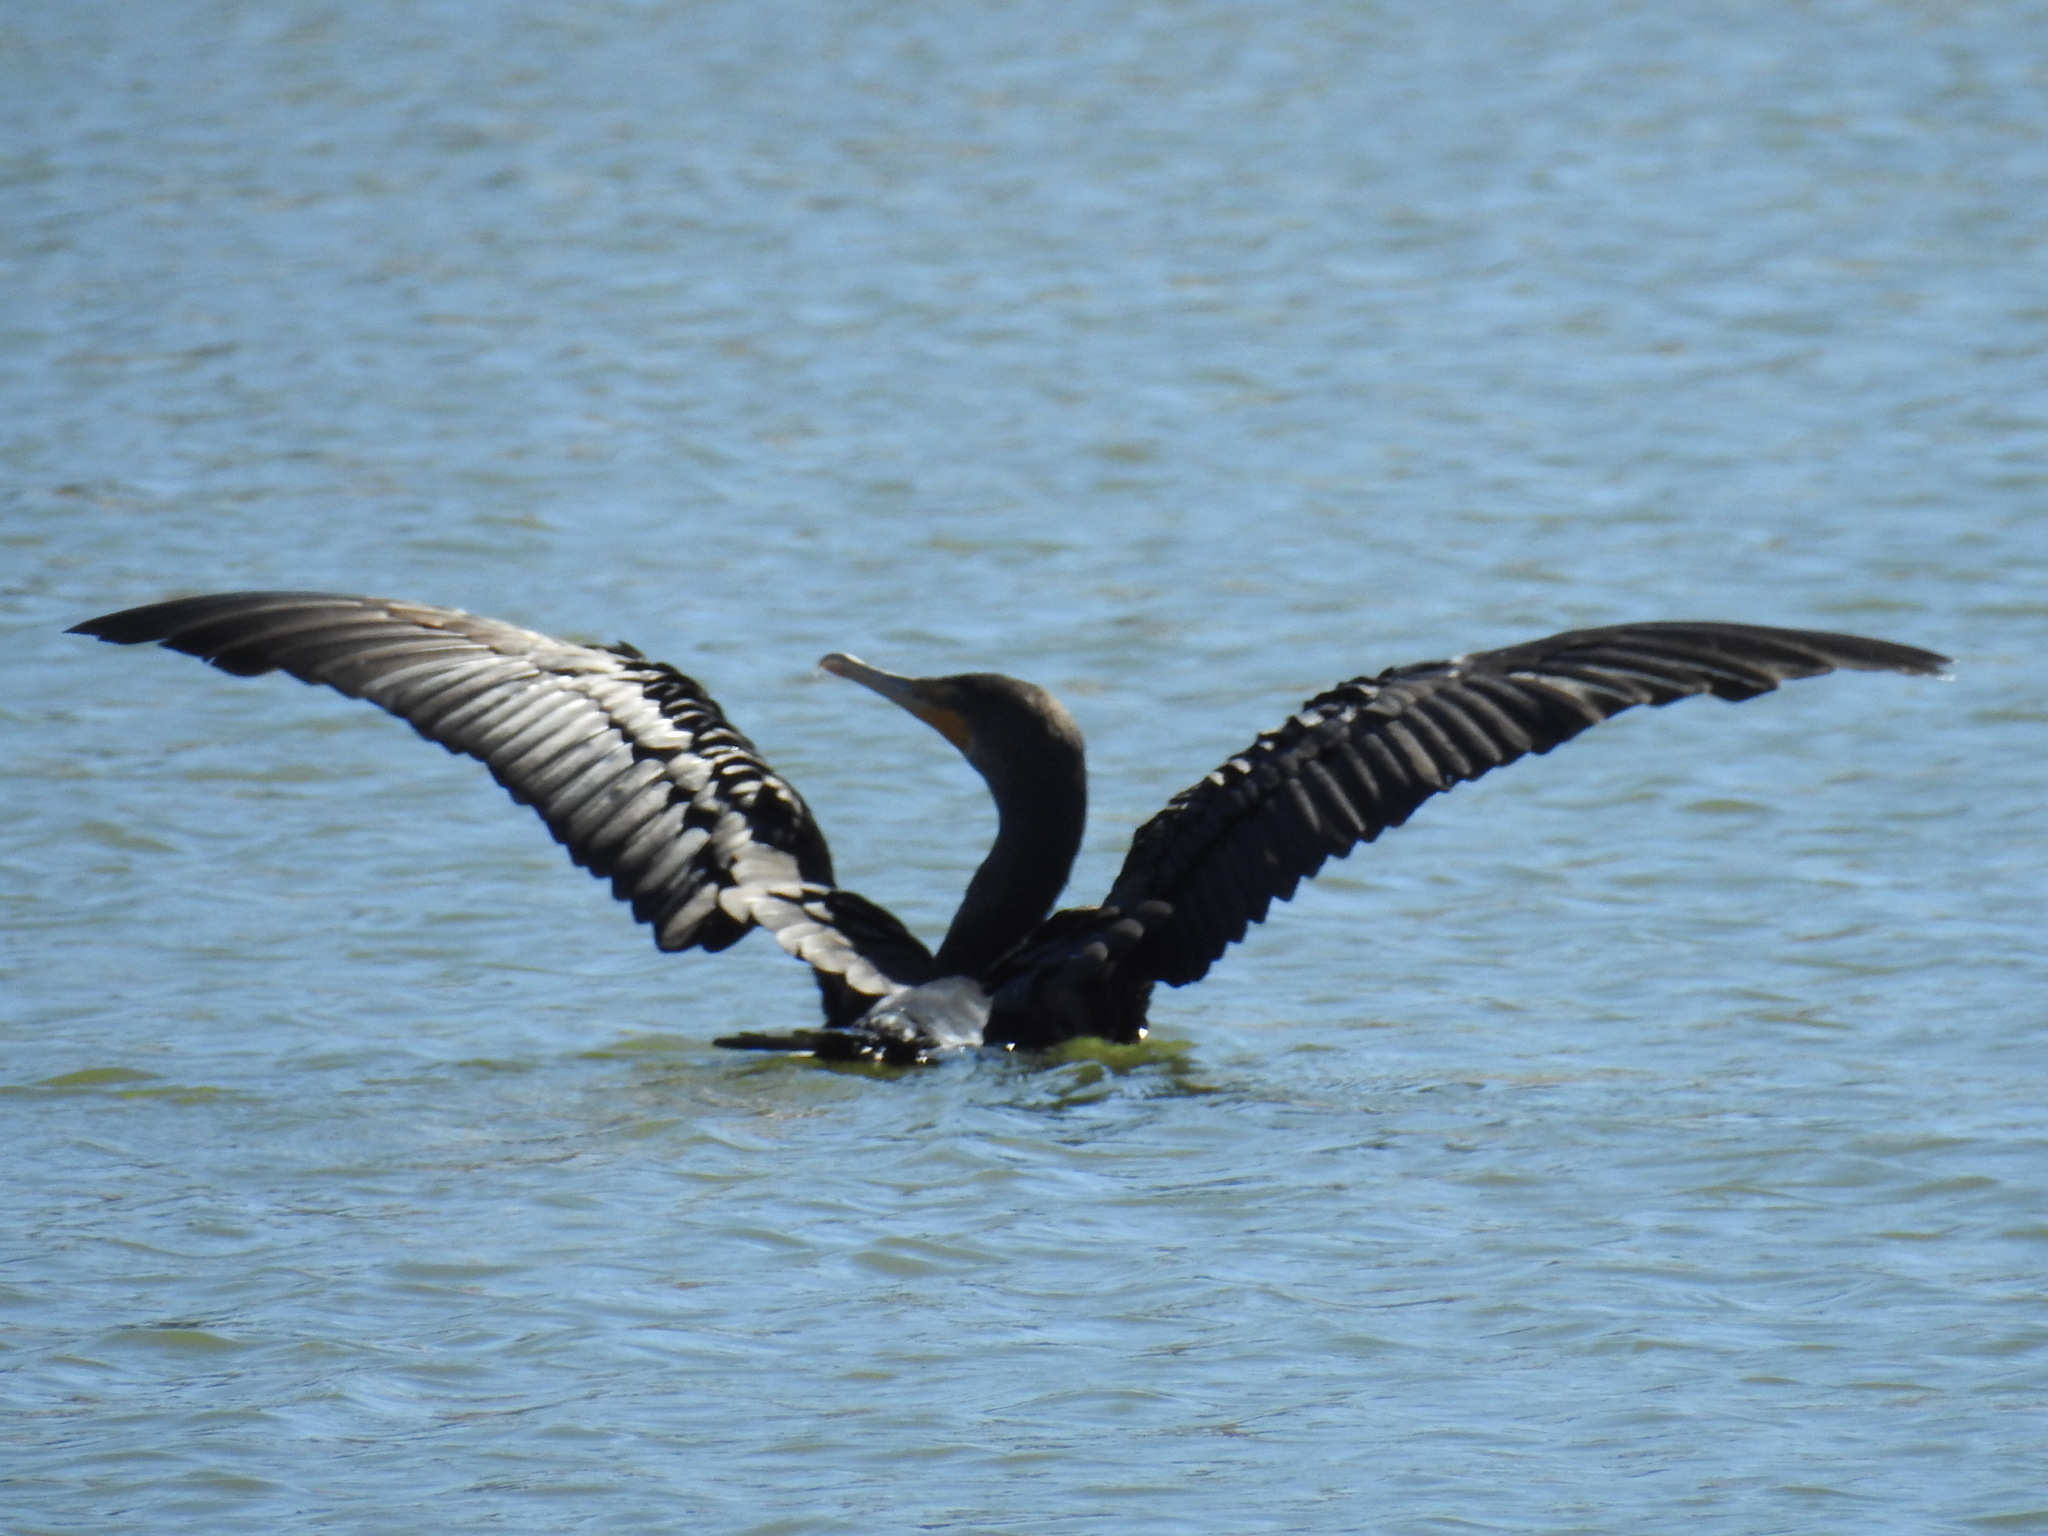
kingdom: Animalia
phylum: Chordata
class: Aves
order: Suliformes
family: Phalacrocoracidae
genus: Phalacrocorax
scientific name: Phalacrocorax auritus
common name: Double-crested cormorant
